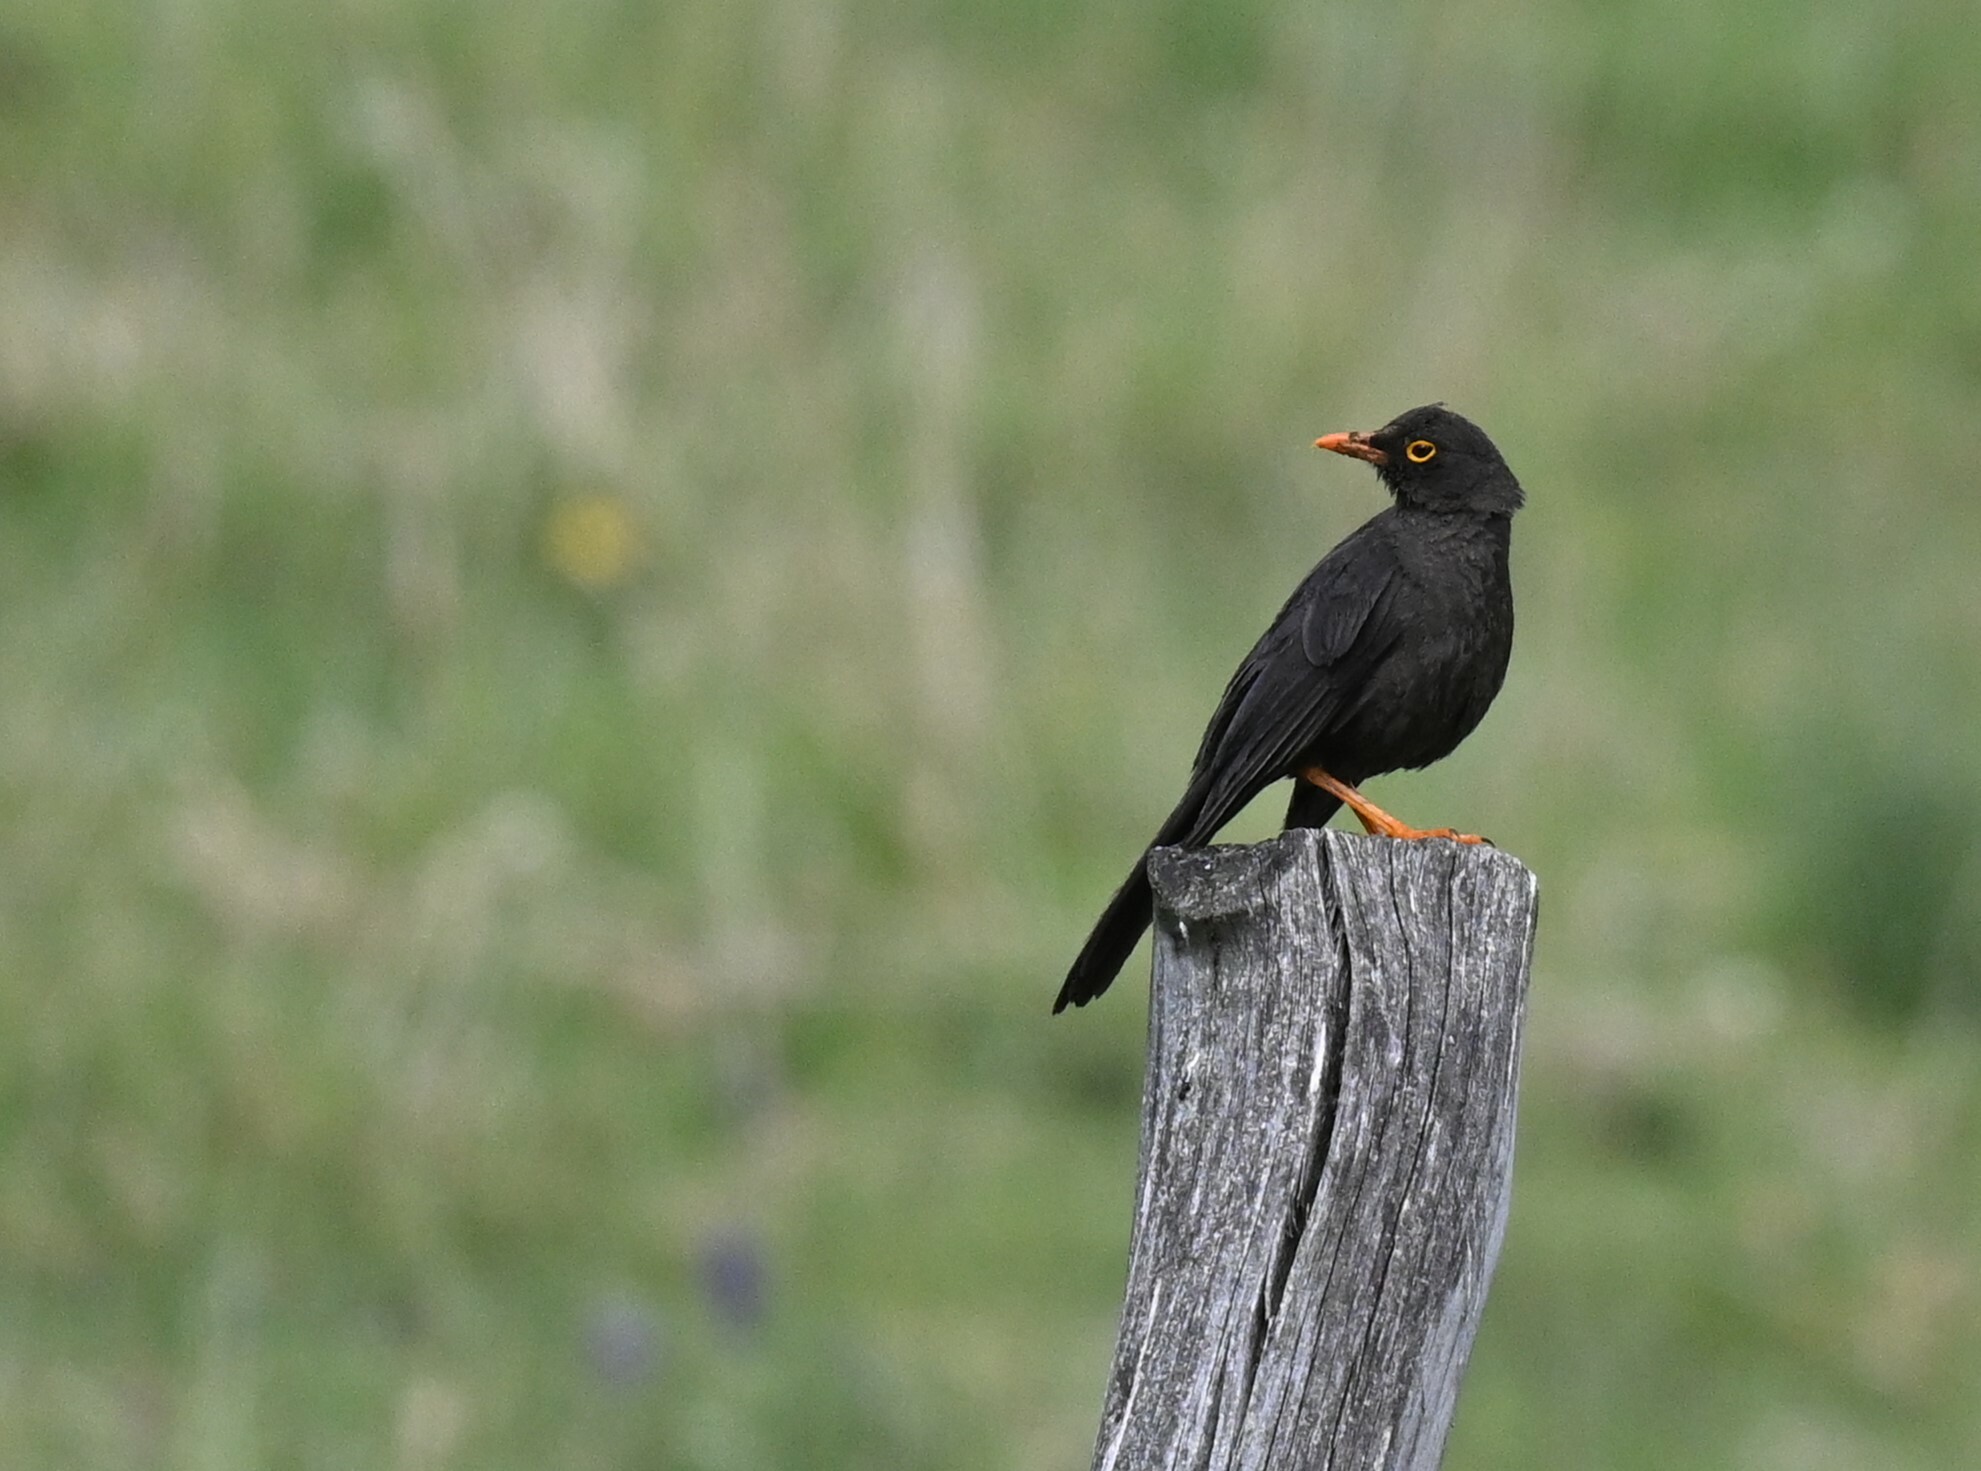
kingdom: Animalia
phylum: Chordata
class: Aves
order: Passeriformes
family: Turdidae
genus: Turdus
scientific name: Turdus fuscater
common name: Great thrush
